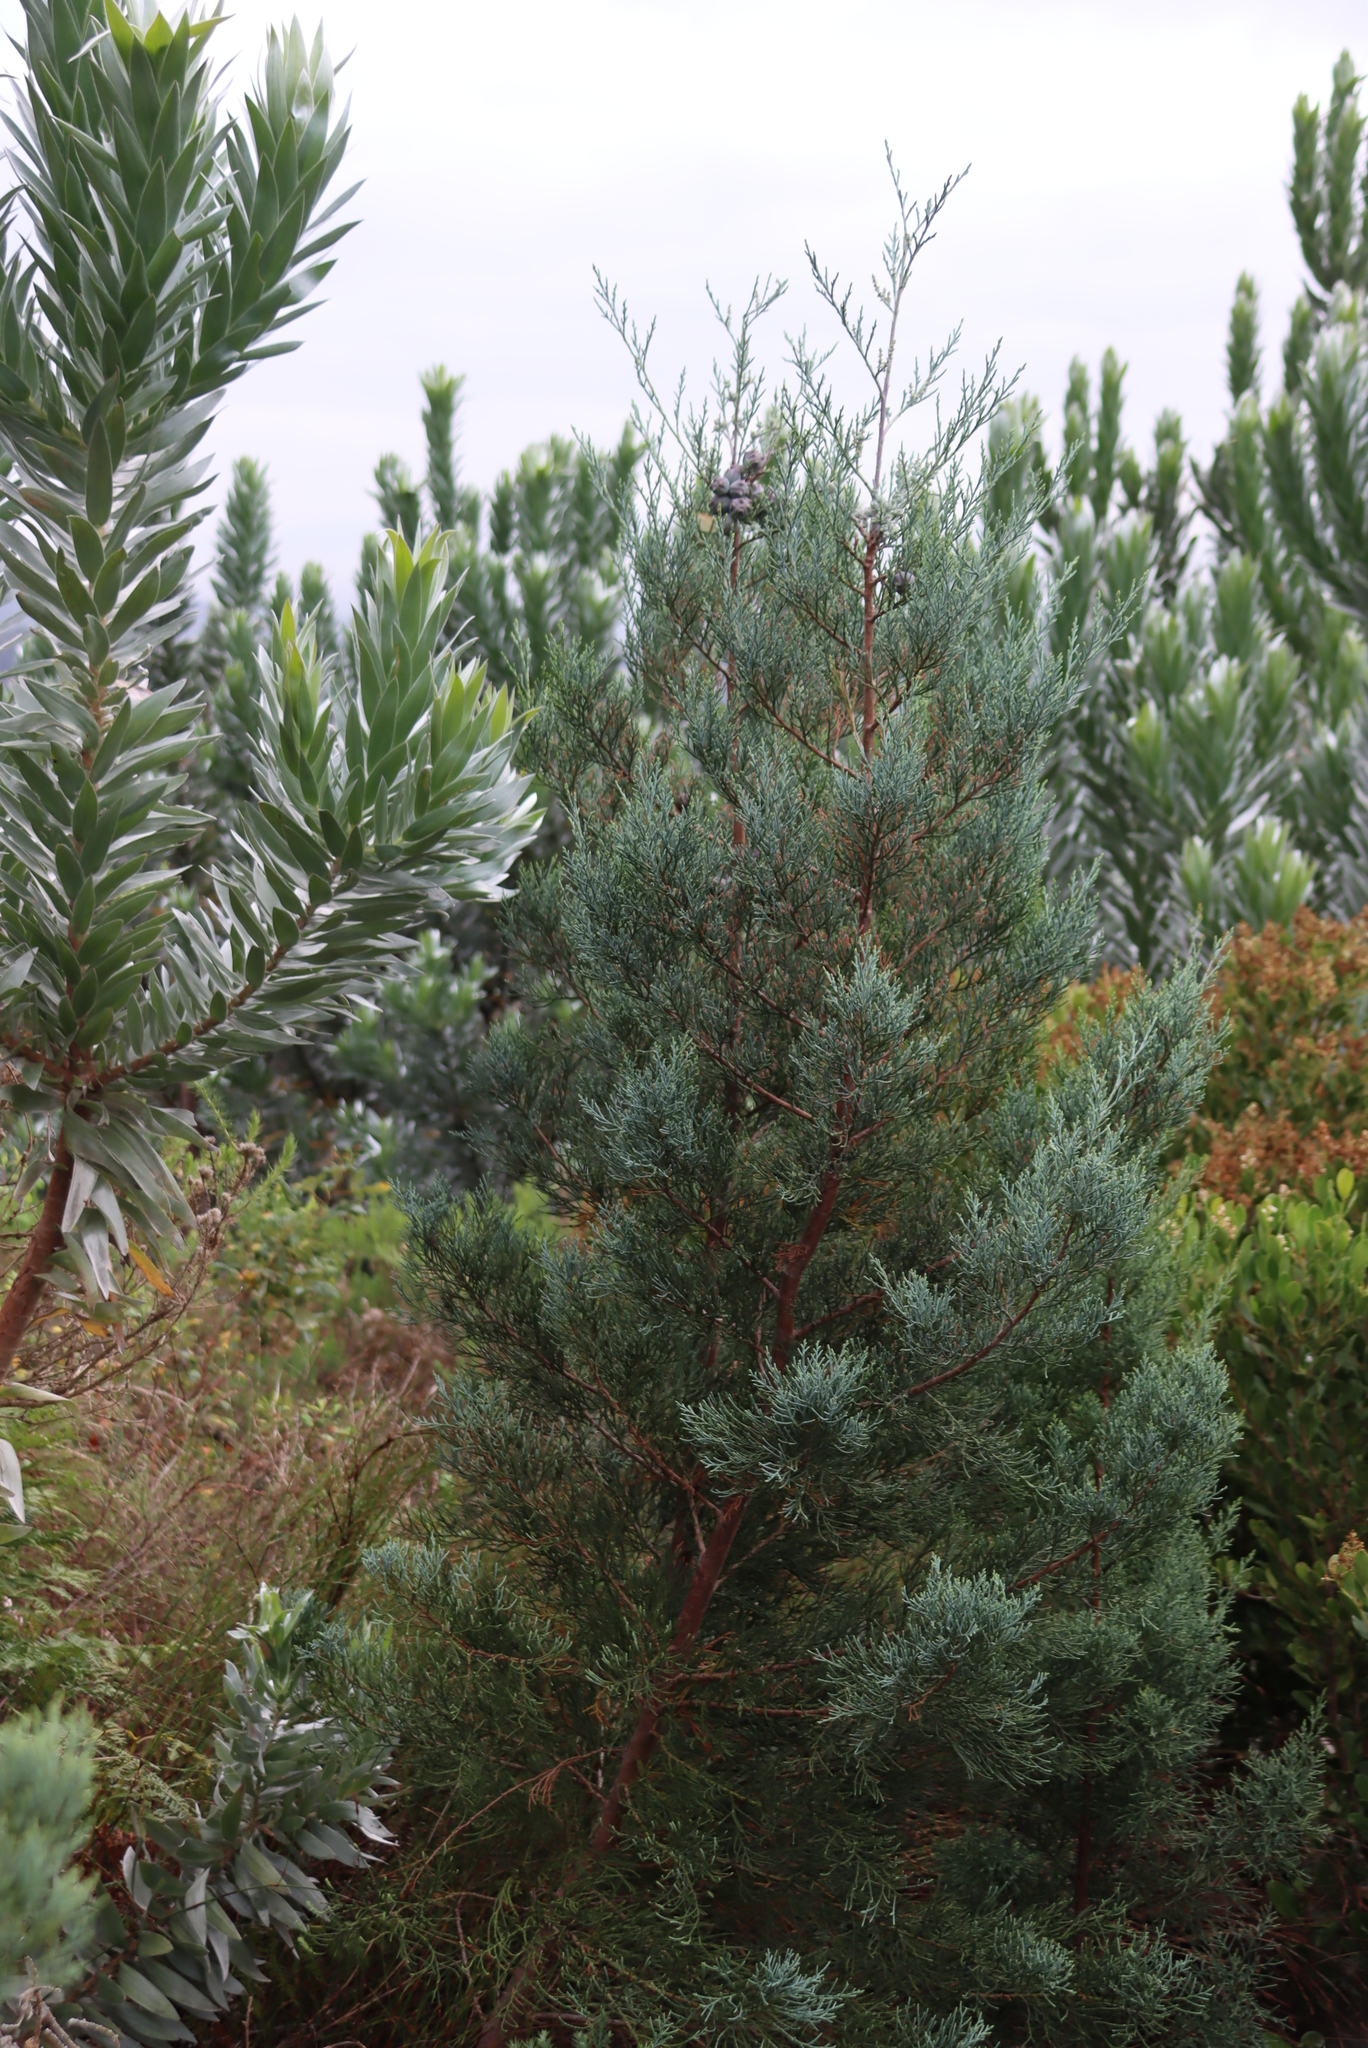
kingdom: Plantae
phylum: Tracheophyta
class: Pinopsida
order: Pinales
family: Cupressaceae
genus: Widdringtonia
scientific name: Widdringtonia nodiflora
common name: Cape cypress
